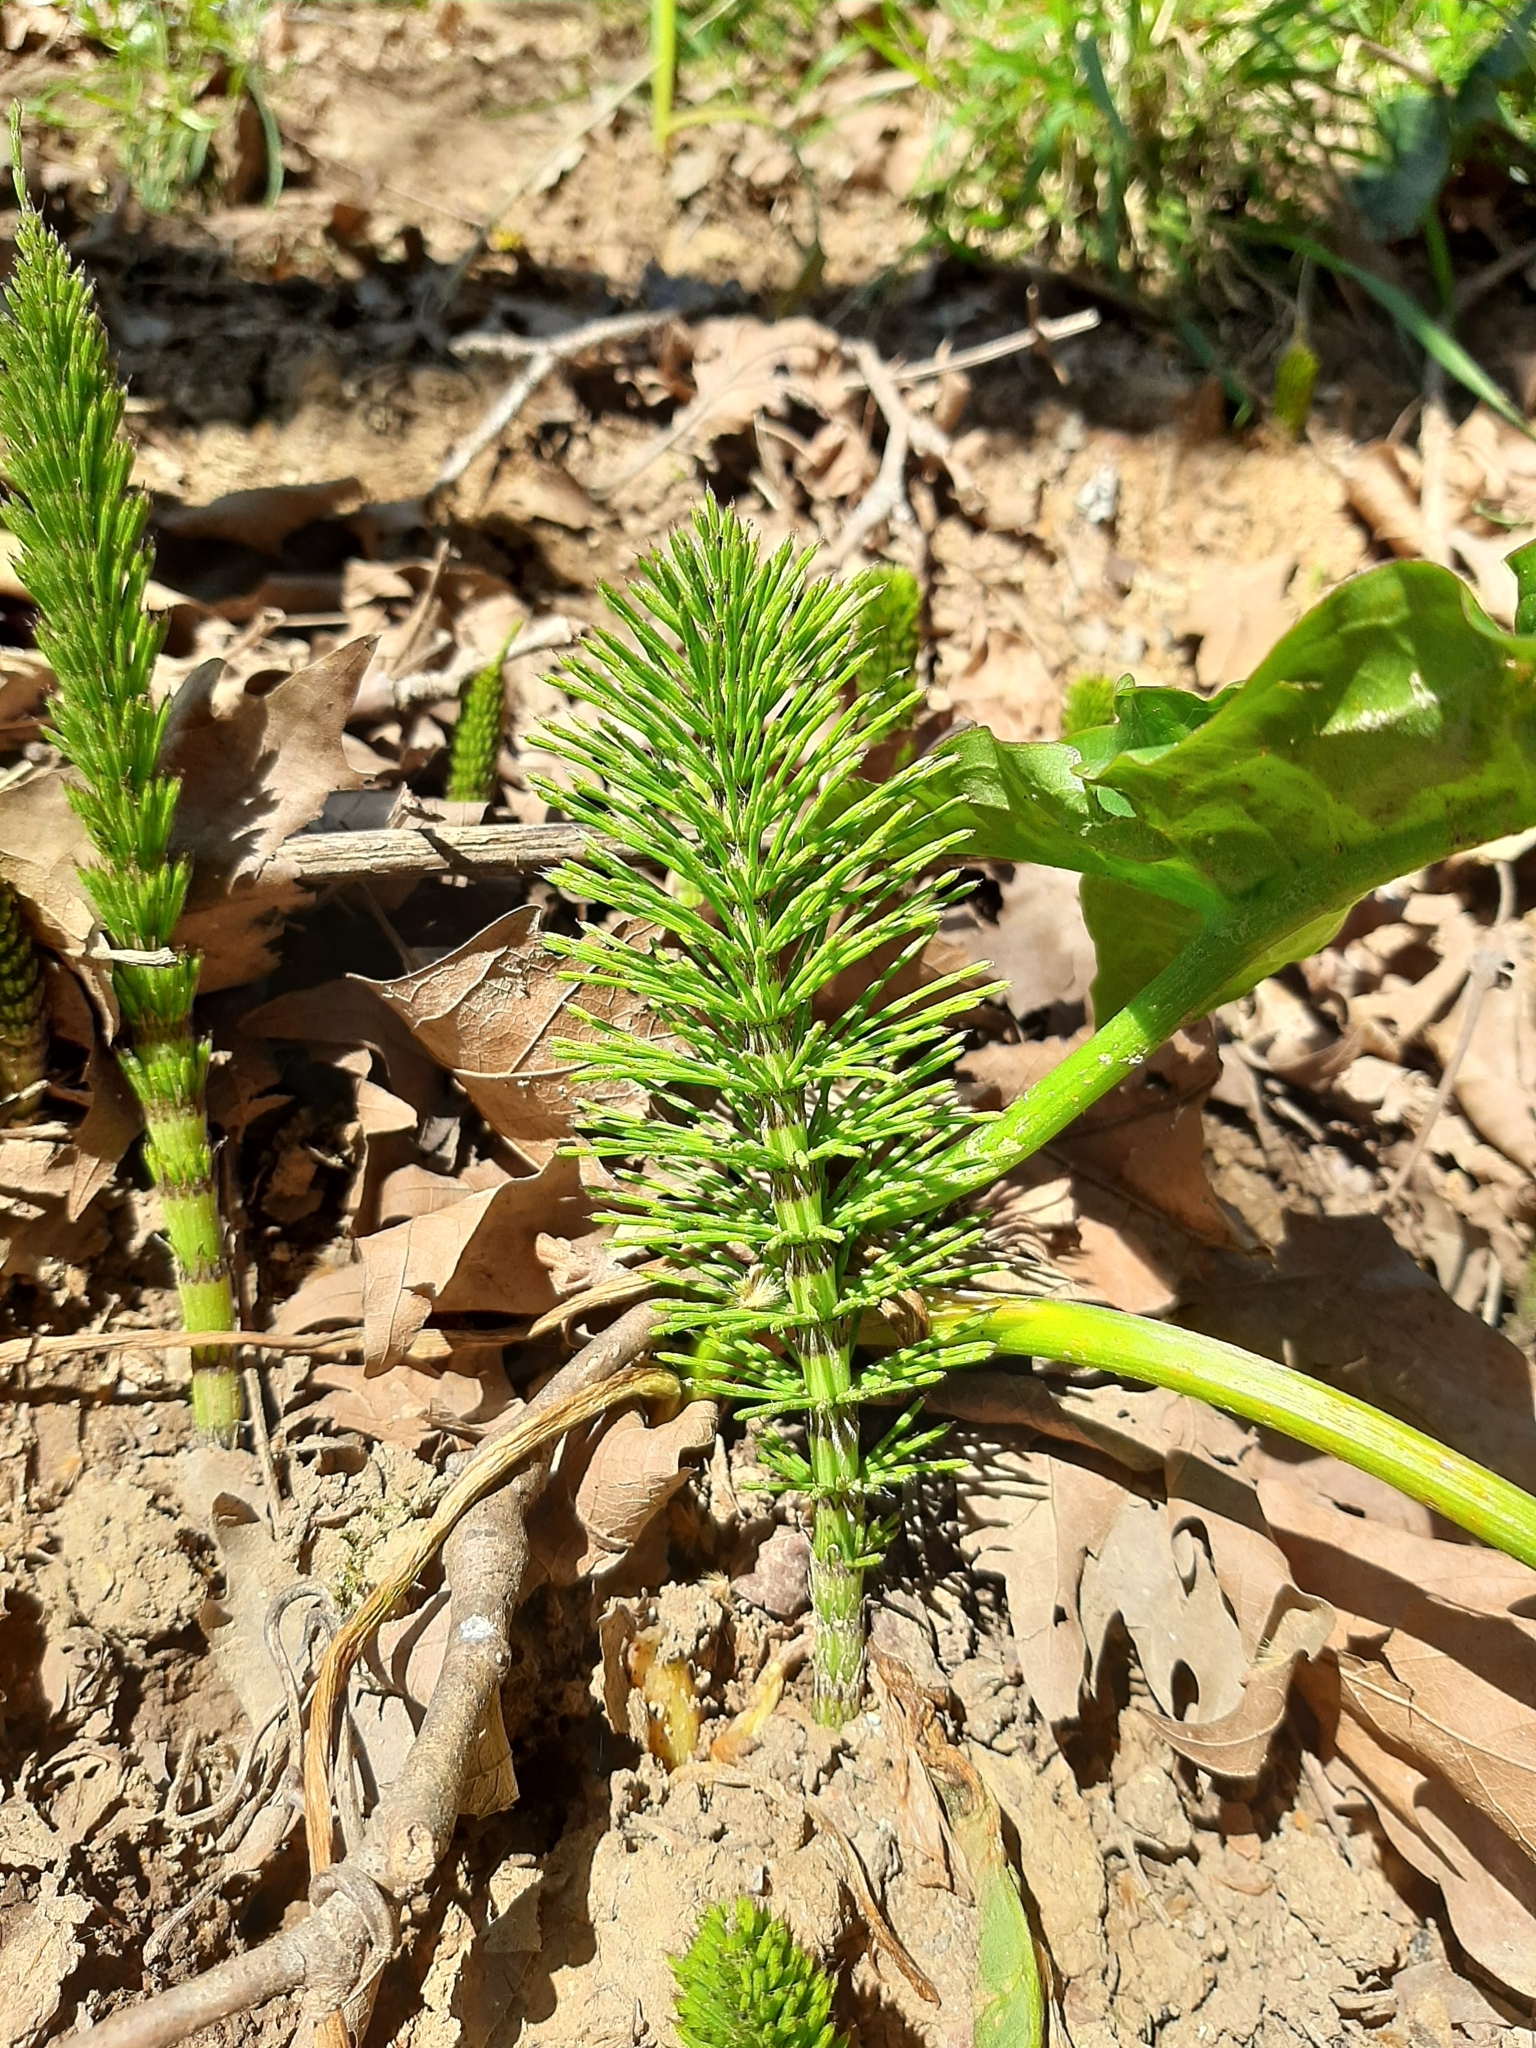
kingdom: Plantae
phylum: Tracheophyta
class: Polypodiopsida
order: Equisetales
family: Equisetaceae
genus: Equisetum
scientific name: Equisetum telmateia
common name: Great horsetail
